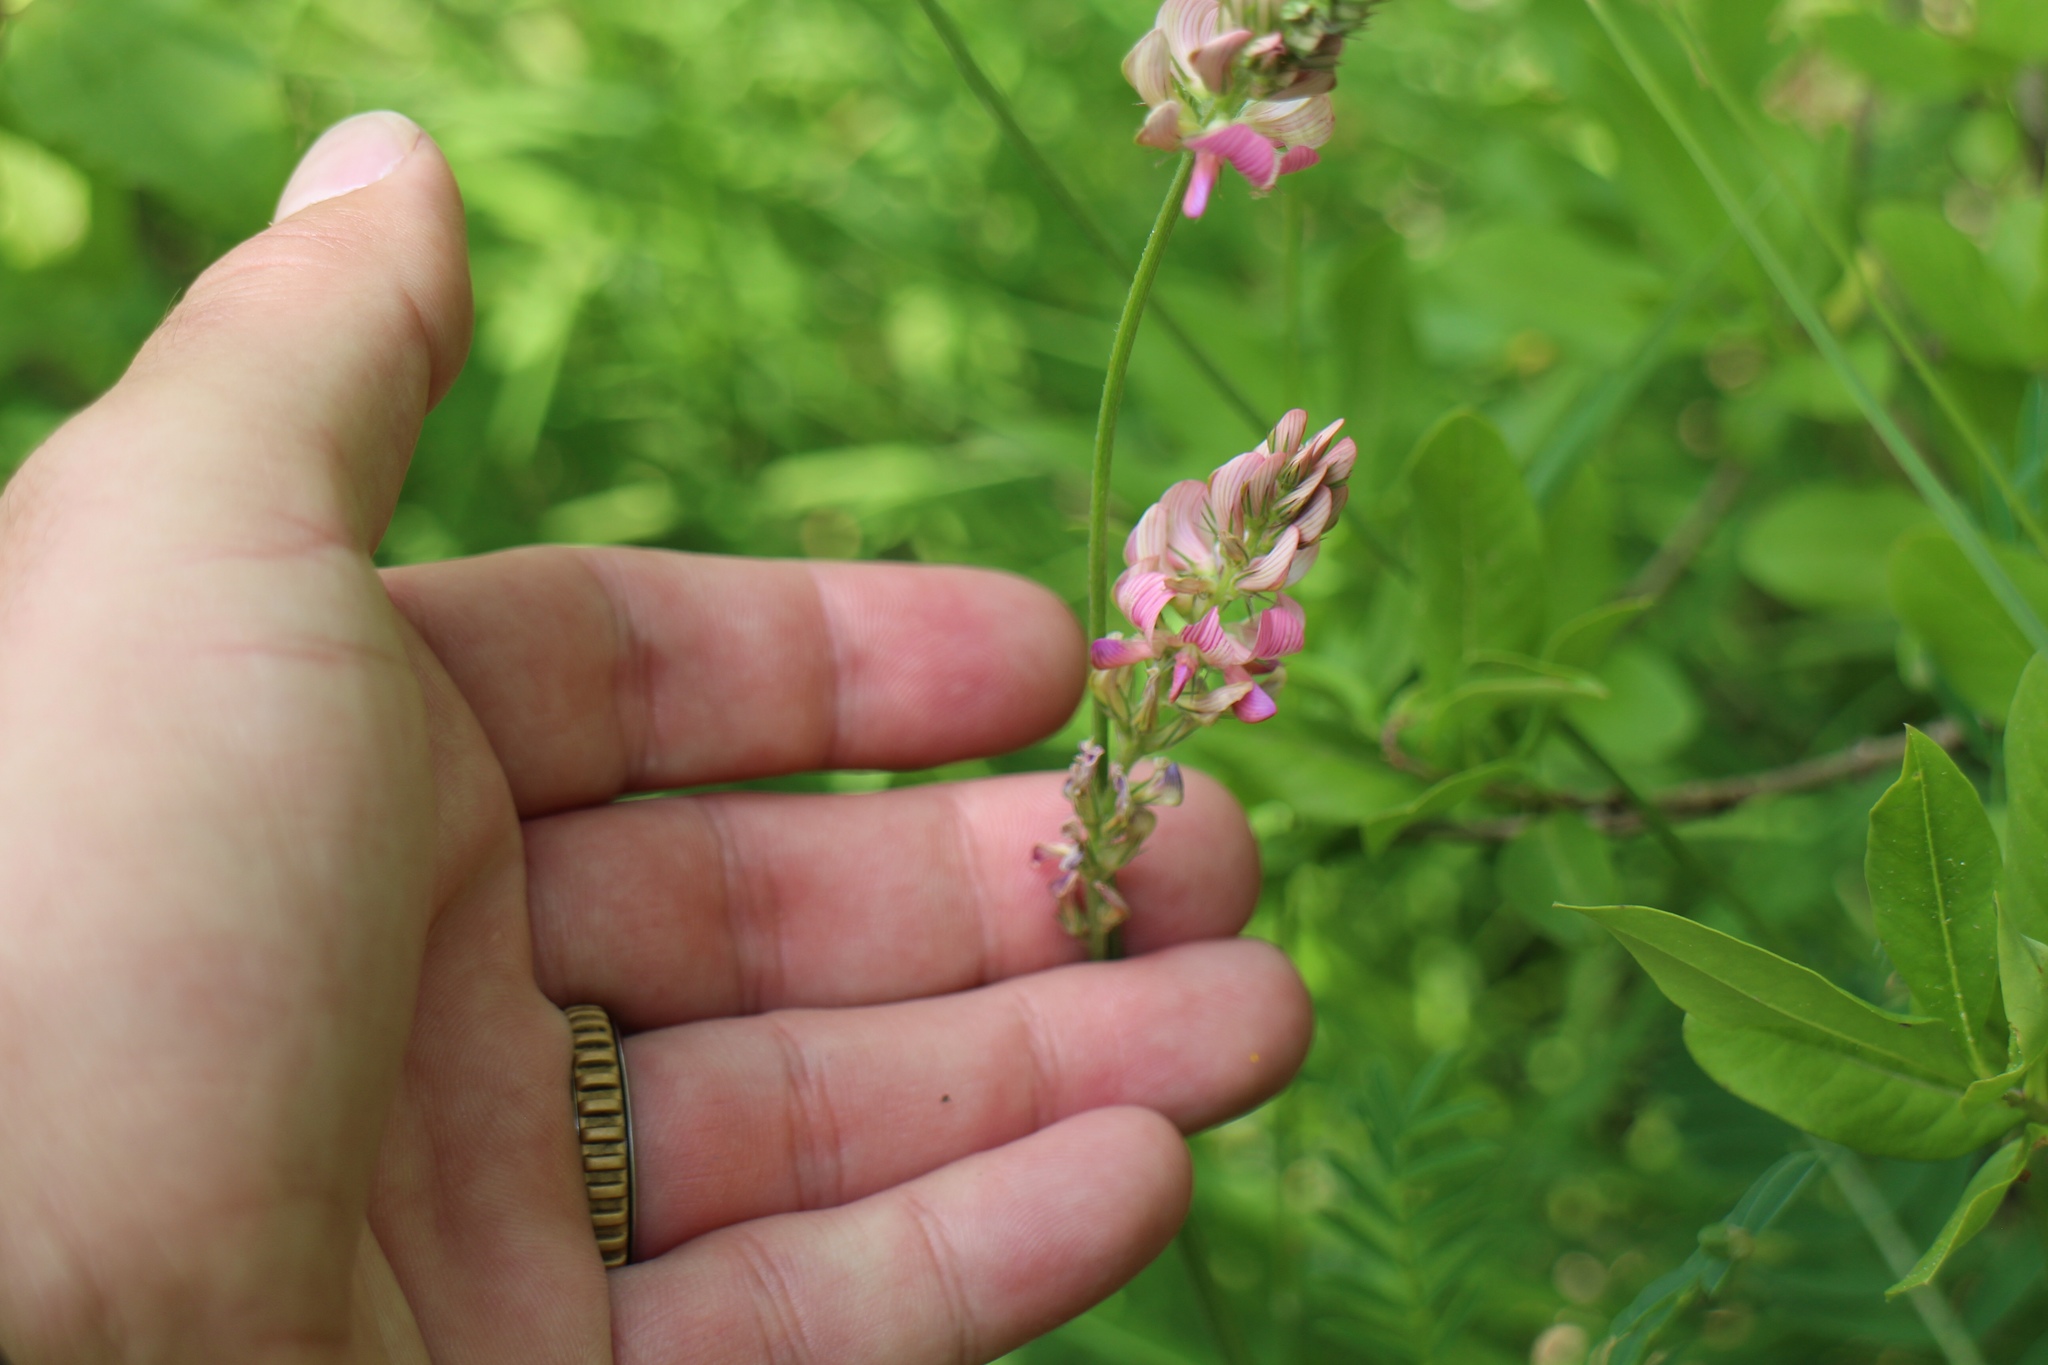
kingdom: Plantae
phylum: Tracheophyta
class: Magnoliopsida
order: Fabales
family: Fabaceae
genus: Onobrychis
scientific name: Onobrychis viciifolia
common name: Sainfoin
